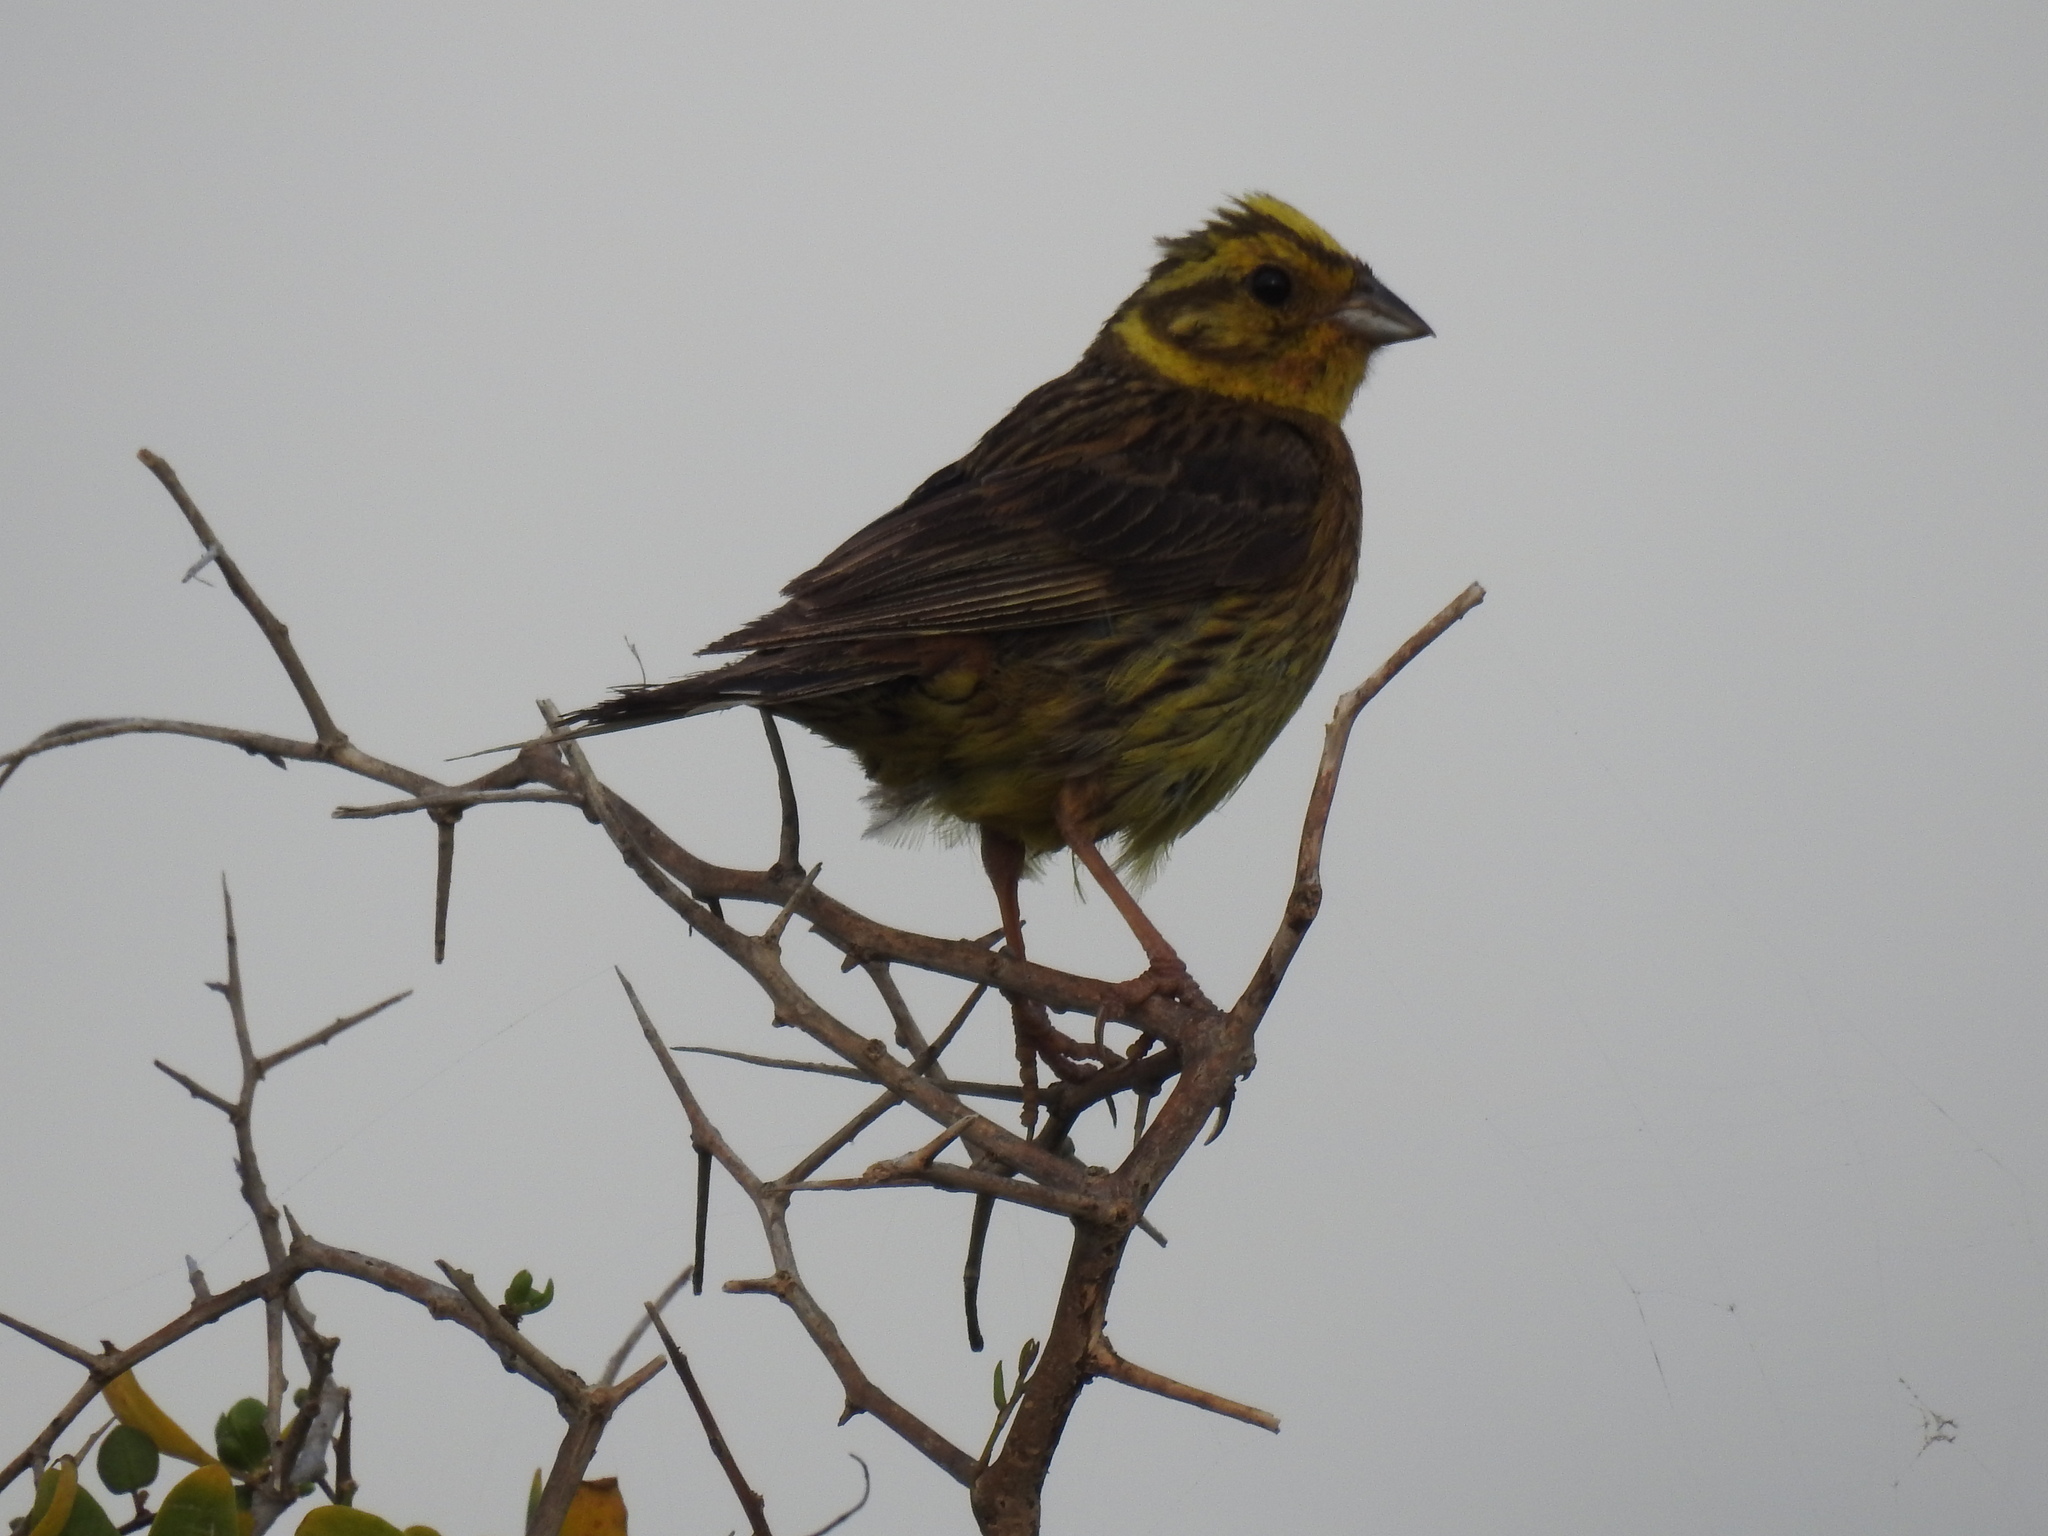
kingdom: Animalia
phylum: Chordata
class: Aves
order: Passeriformes
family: Emberizidae
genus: Emberiza
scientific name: Emberiza citrinella
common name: Yellowhammer
